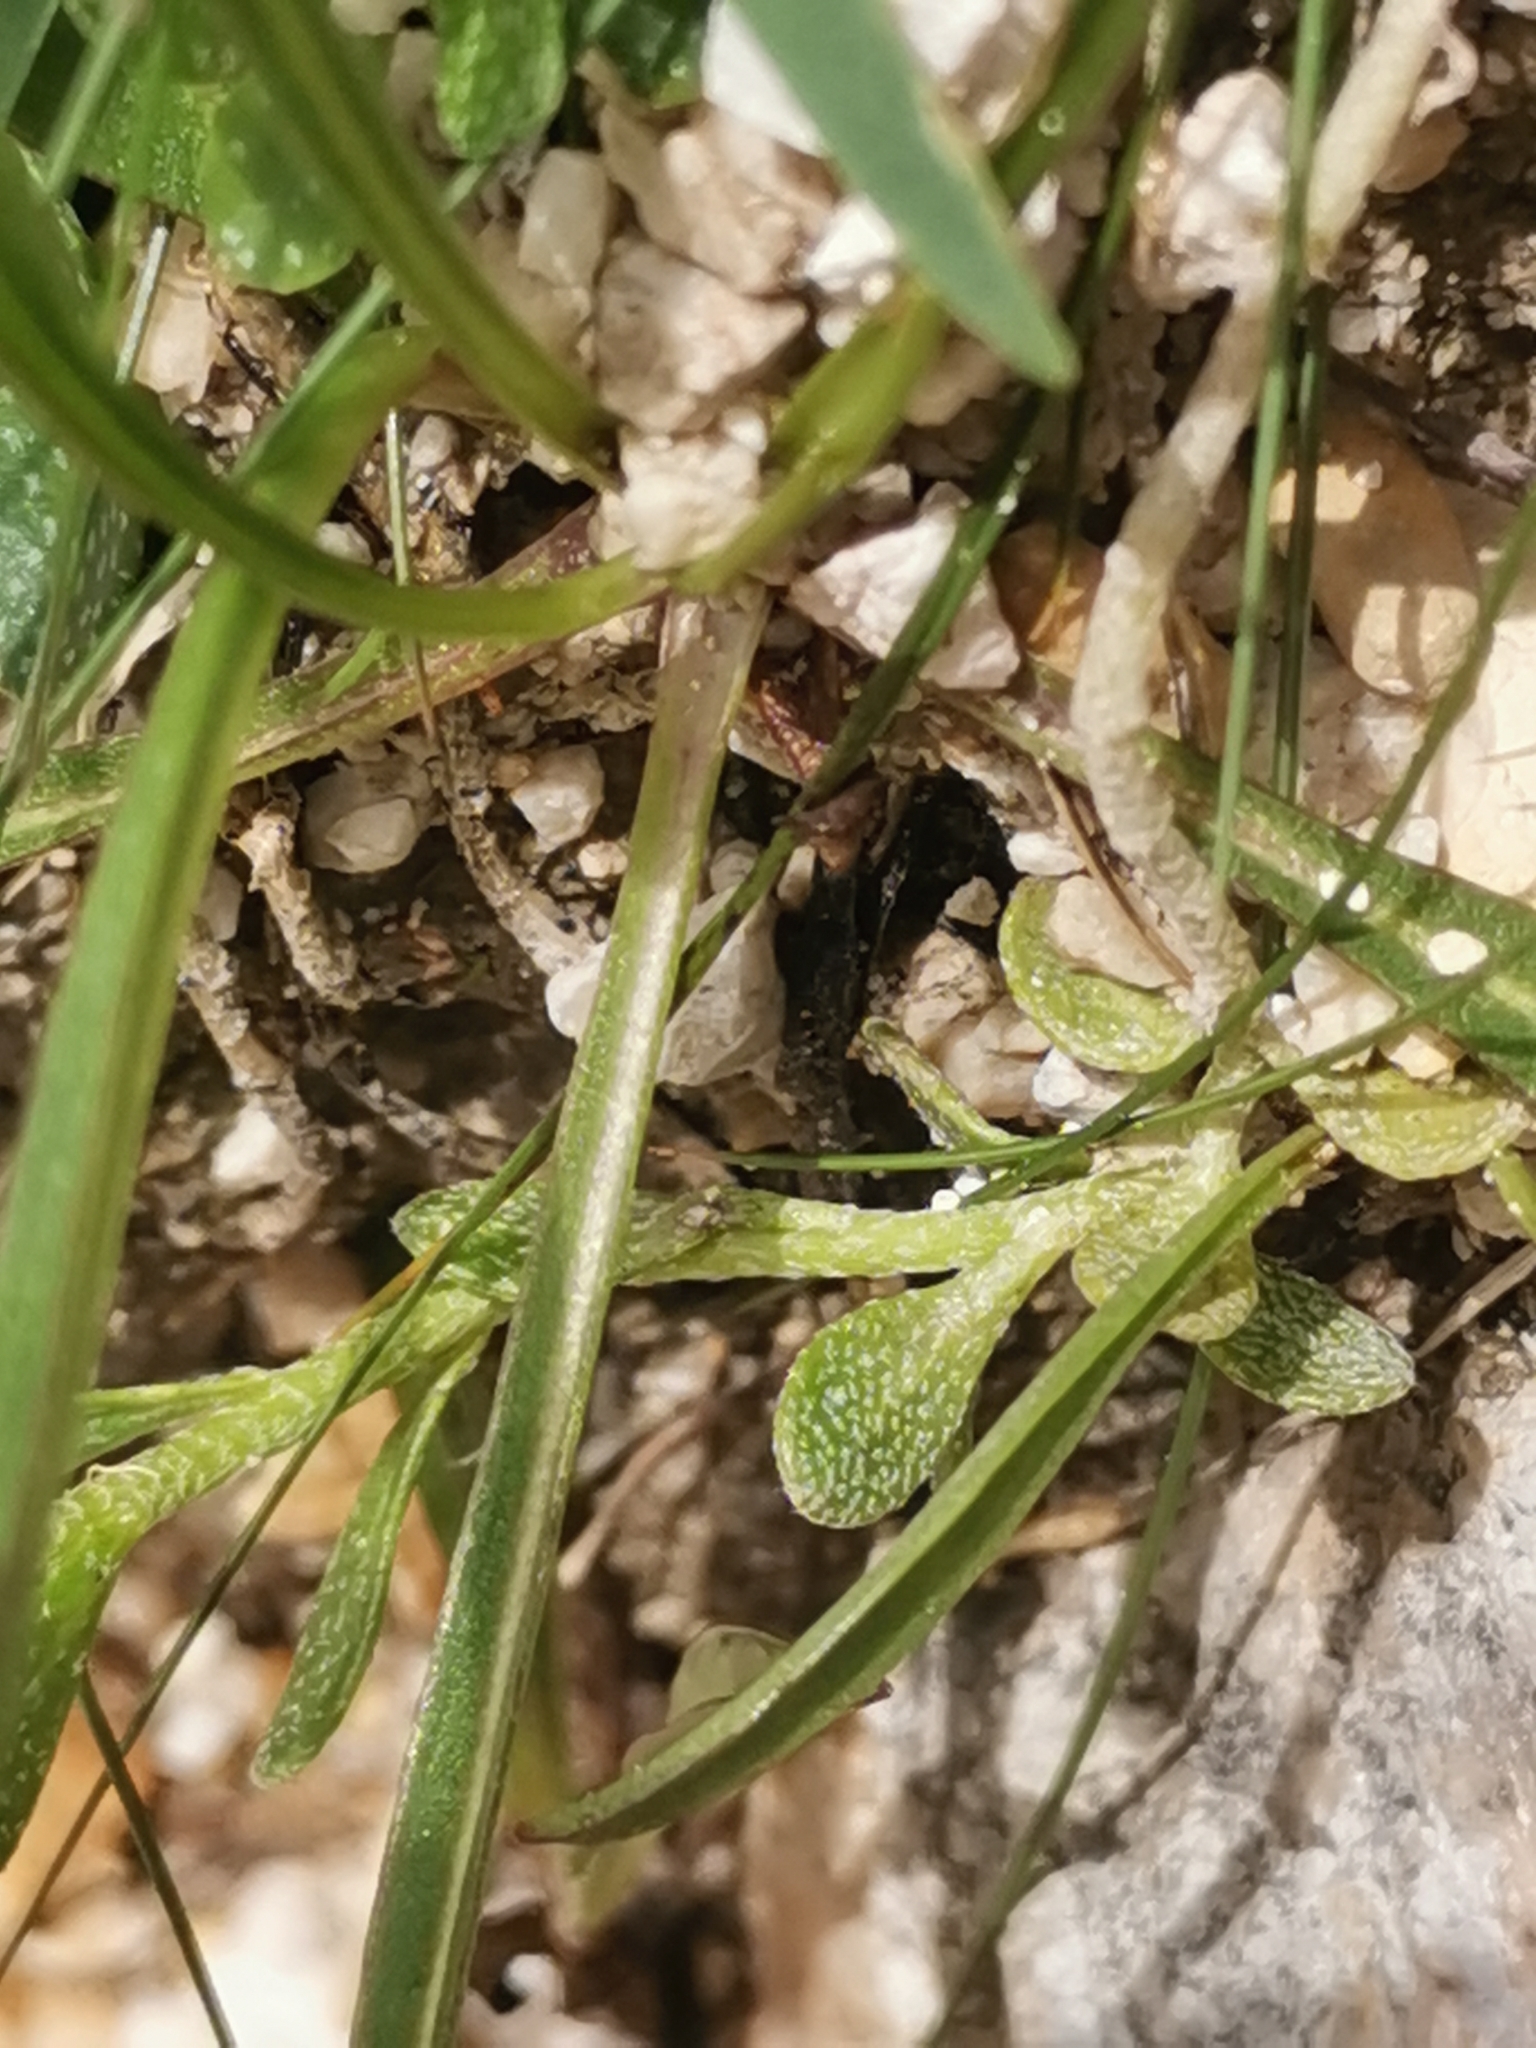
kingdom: Plantae
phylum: Tracheophyta
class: Magnoliopsida
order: Brassicales
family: Brassicaceae
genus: Alyssum
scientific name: Alyssum wulfenianum
